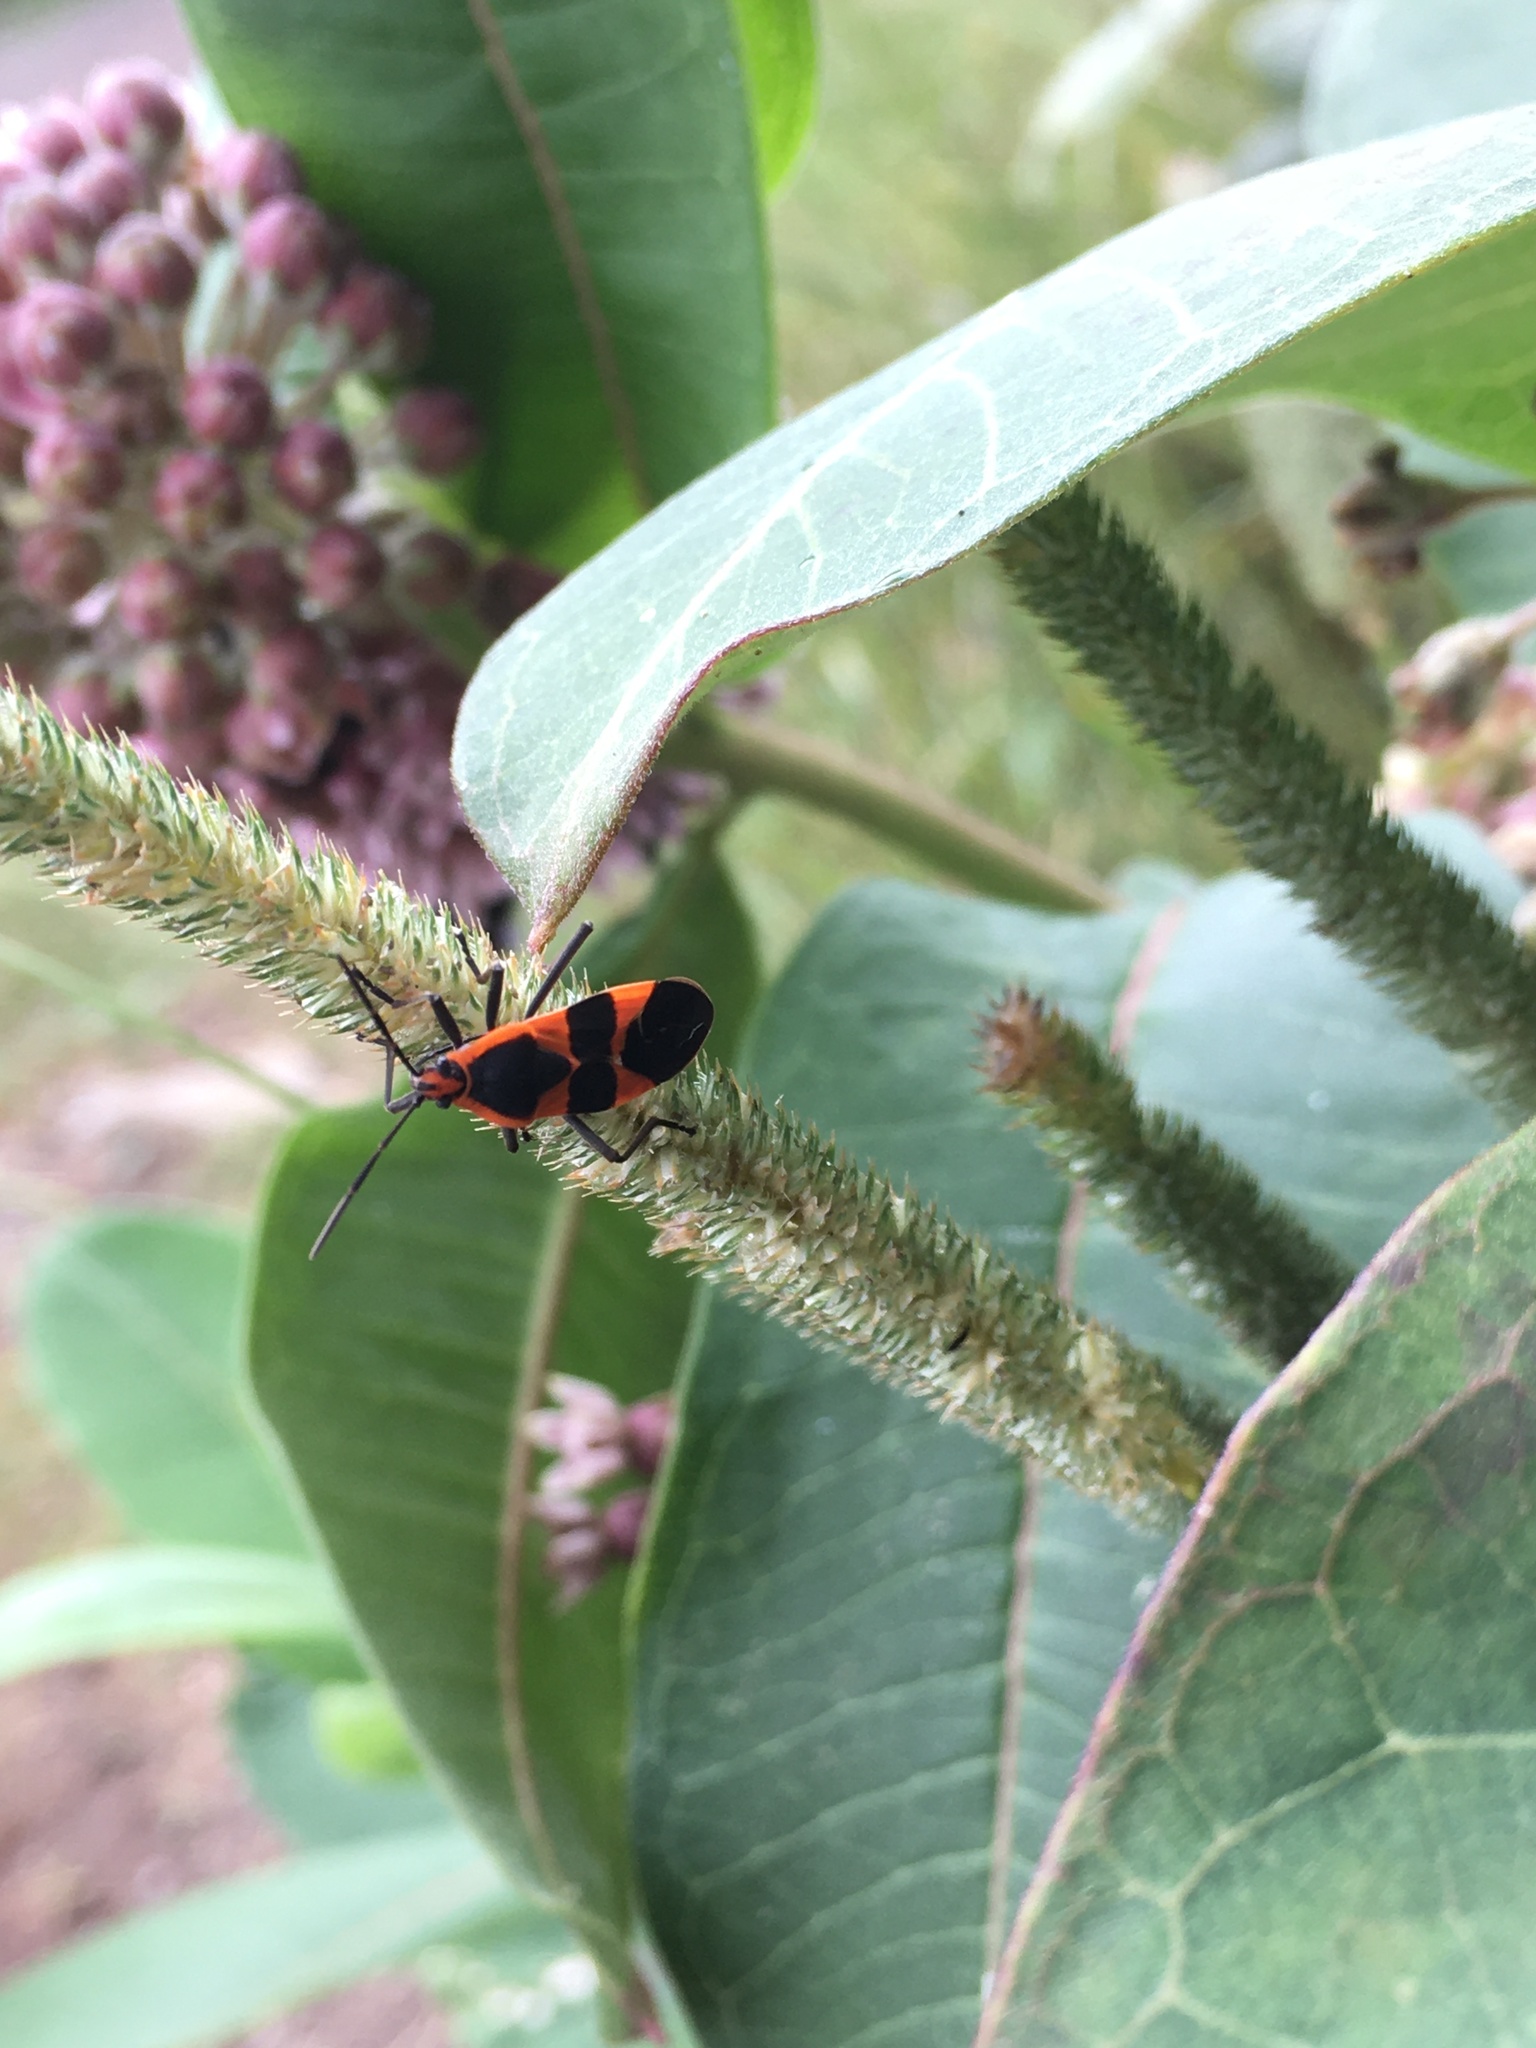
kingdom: Animalia
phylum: Arthropoda
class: Insecta
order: Hemiptera
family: Lygaeidae
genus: Oncopeltus
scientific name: Oncopeltus fasciatus
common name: Large milkweed bug
